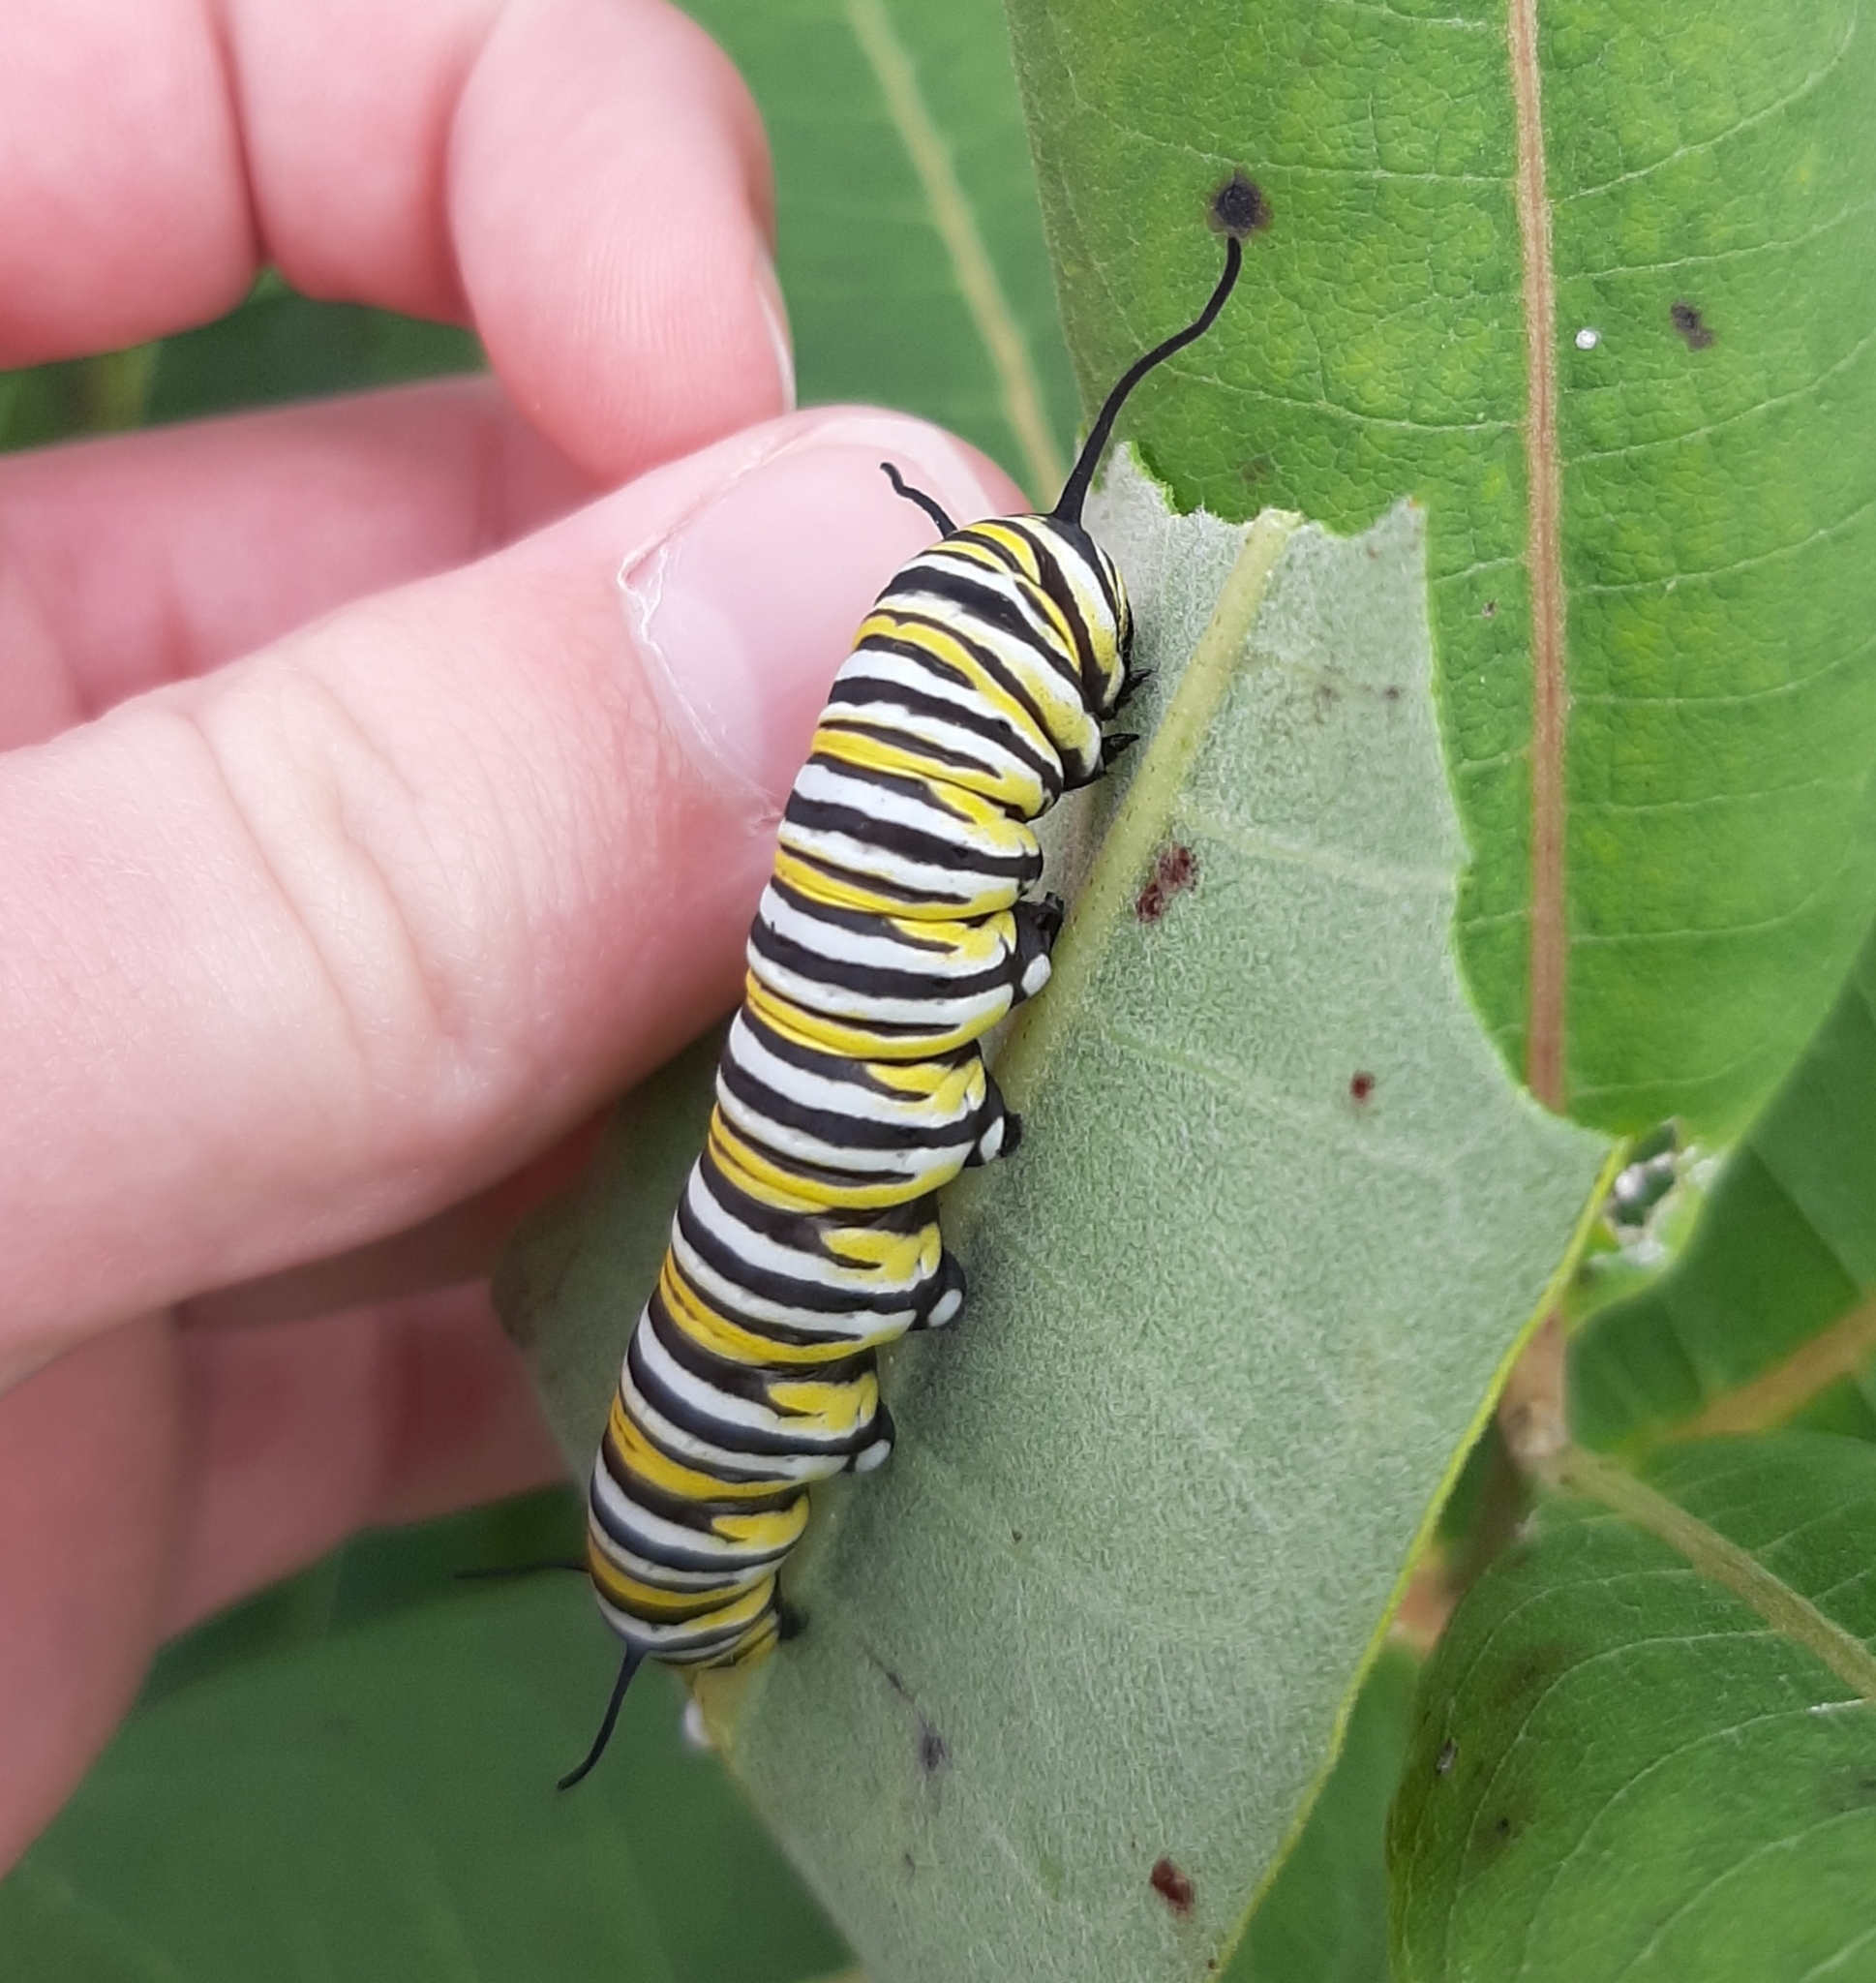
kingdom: Animalia
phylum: Arthropoda
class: Insecta
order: Lepidoptera
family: Nymphalidae
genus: Danaus
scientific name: Danaus plexippus
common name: Monarch
